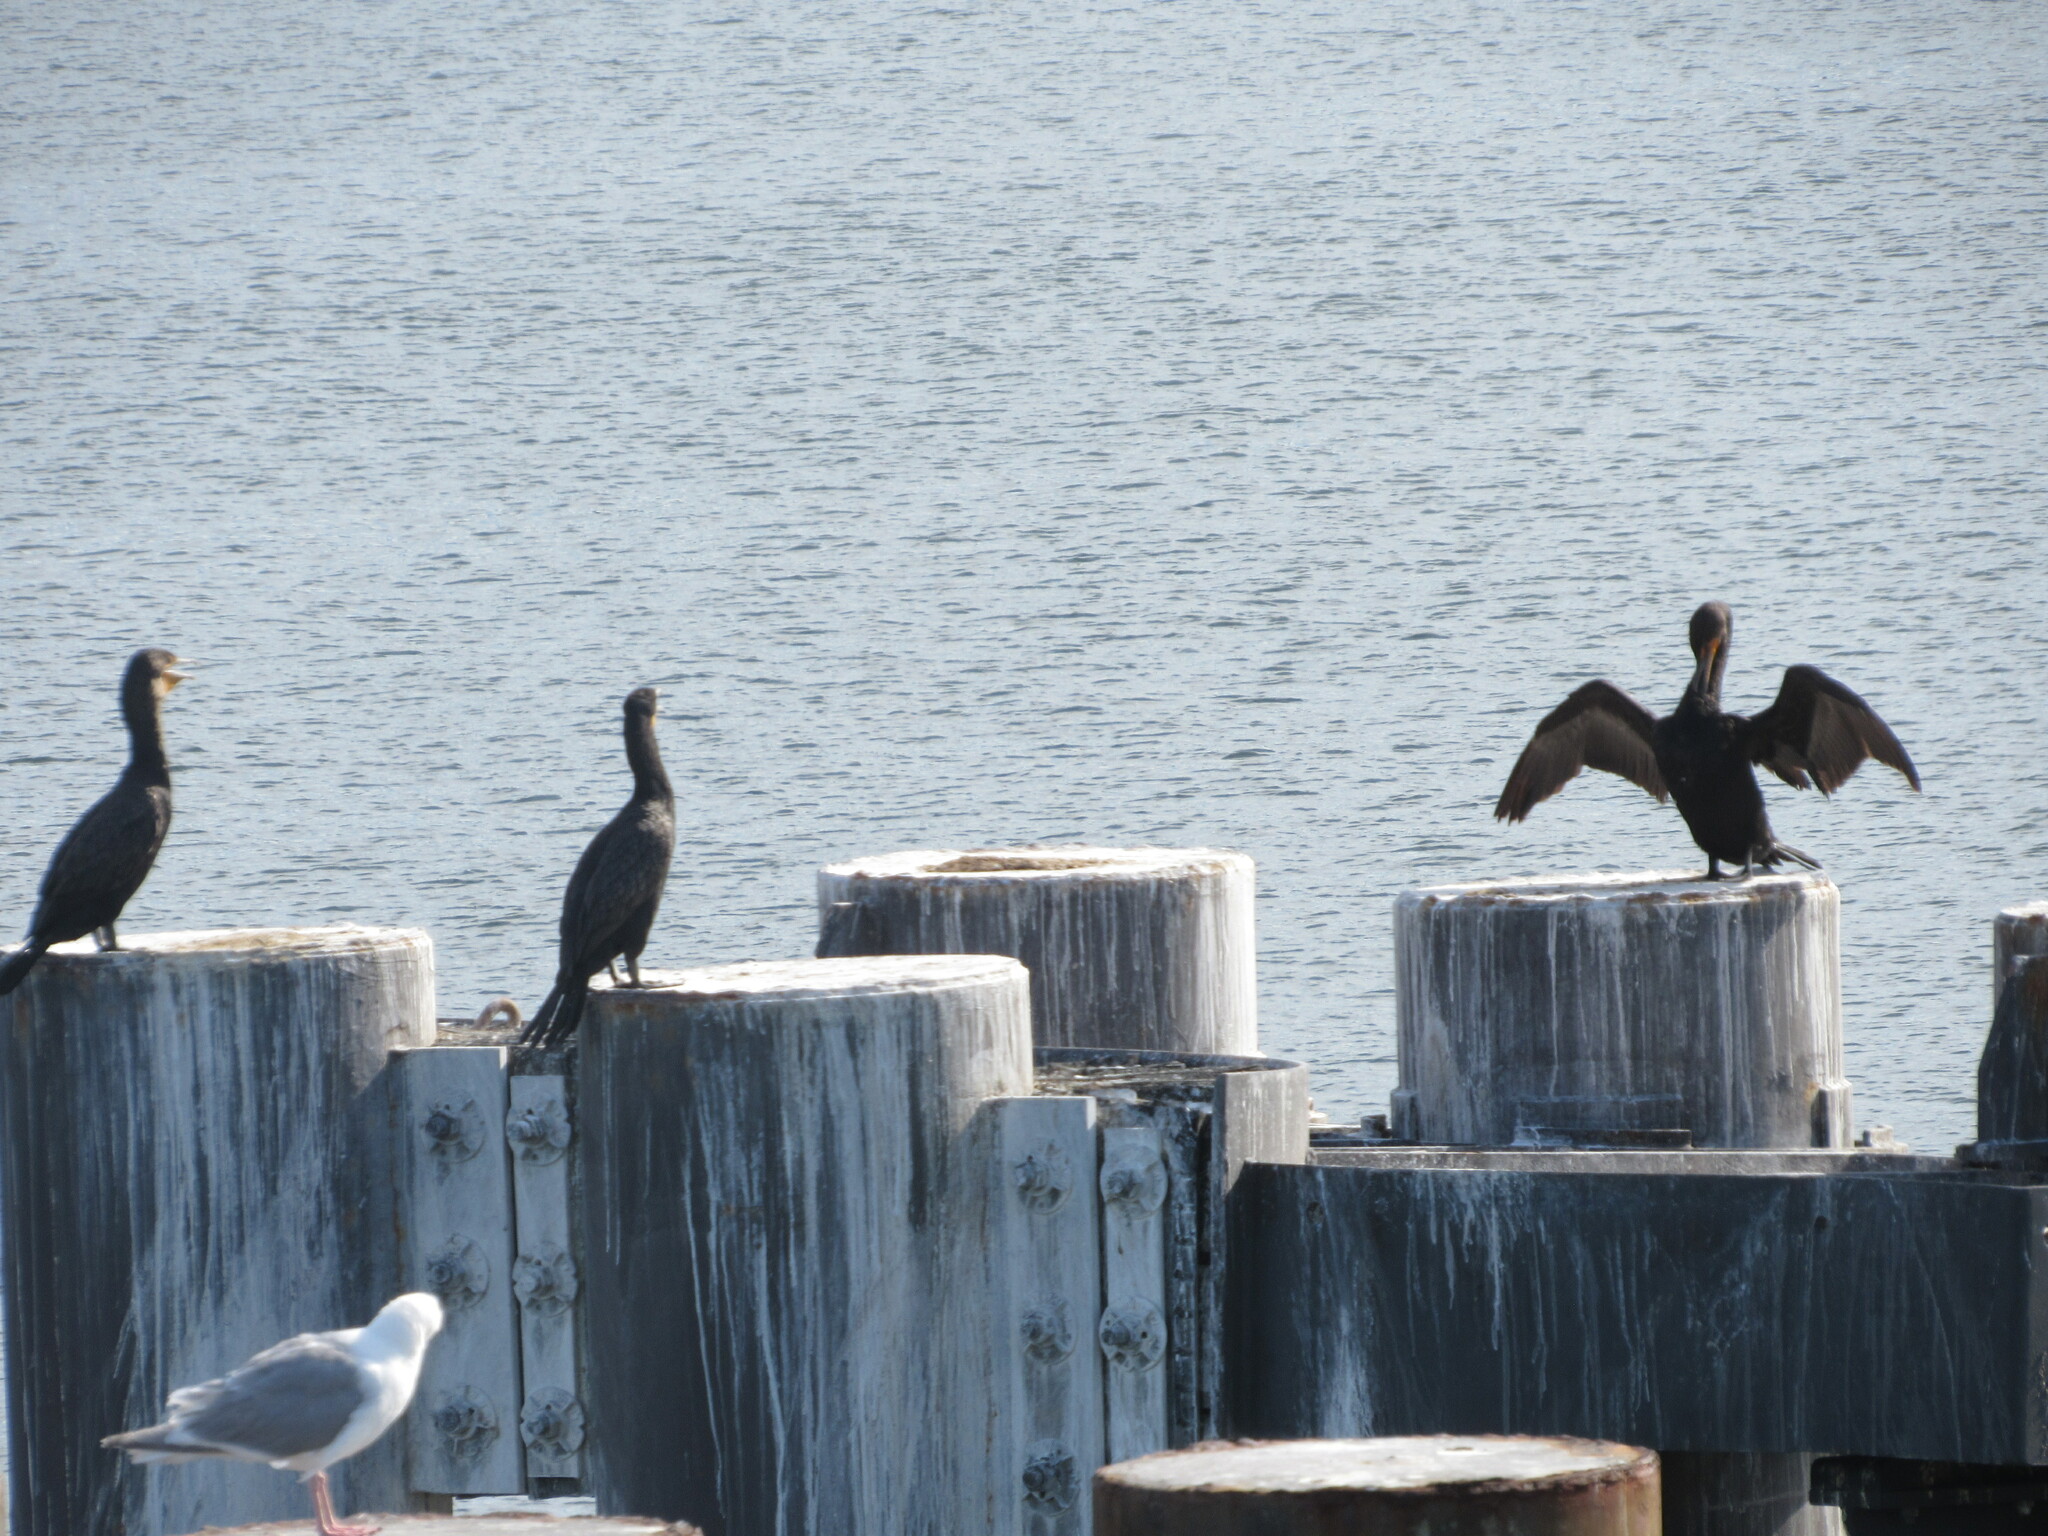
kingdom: Animalia
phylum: Chordata
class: Aves
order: Suliformes
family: Phalacrocoracidae
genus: Phalacrocorax
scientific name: Phalacrocorax auritus
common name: Double-crested cormorant
